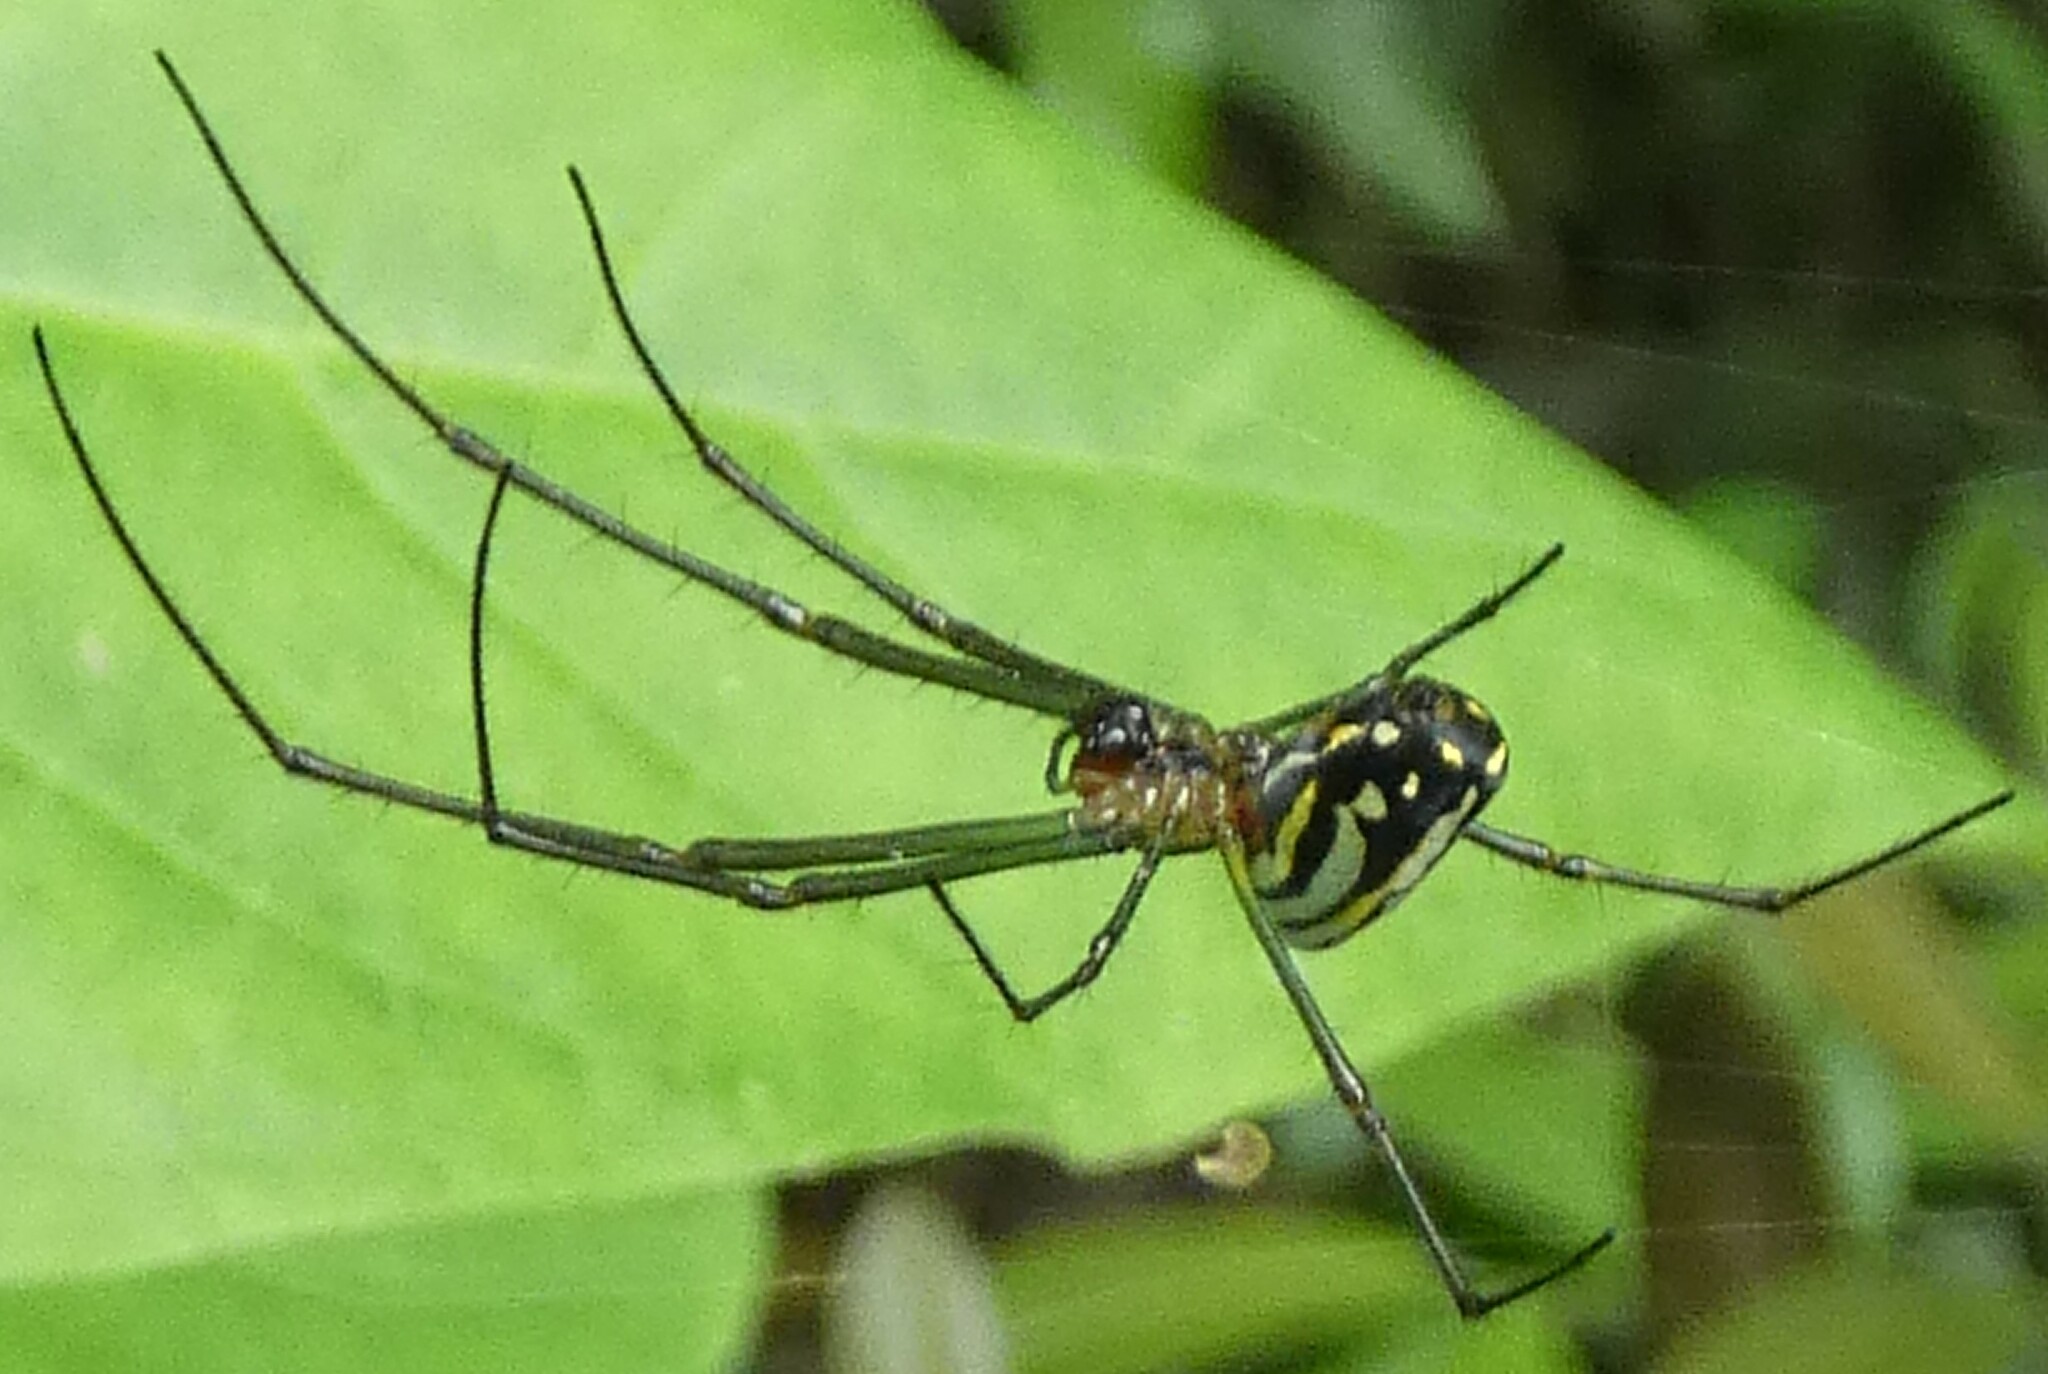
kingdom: Animalia
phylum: Arthropoda
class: Arachnida
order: Araneae
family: Tetragnathidae
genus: Leucauge
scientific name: Leucauge argyra
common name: Longjawed orb weavers
